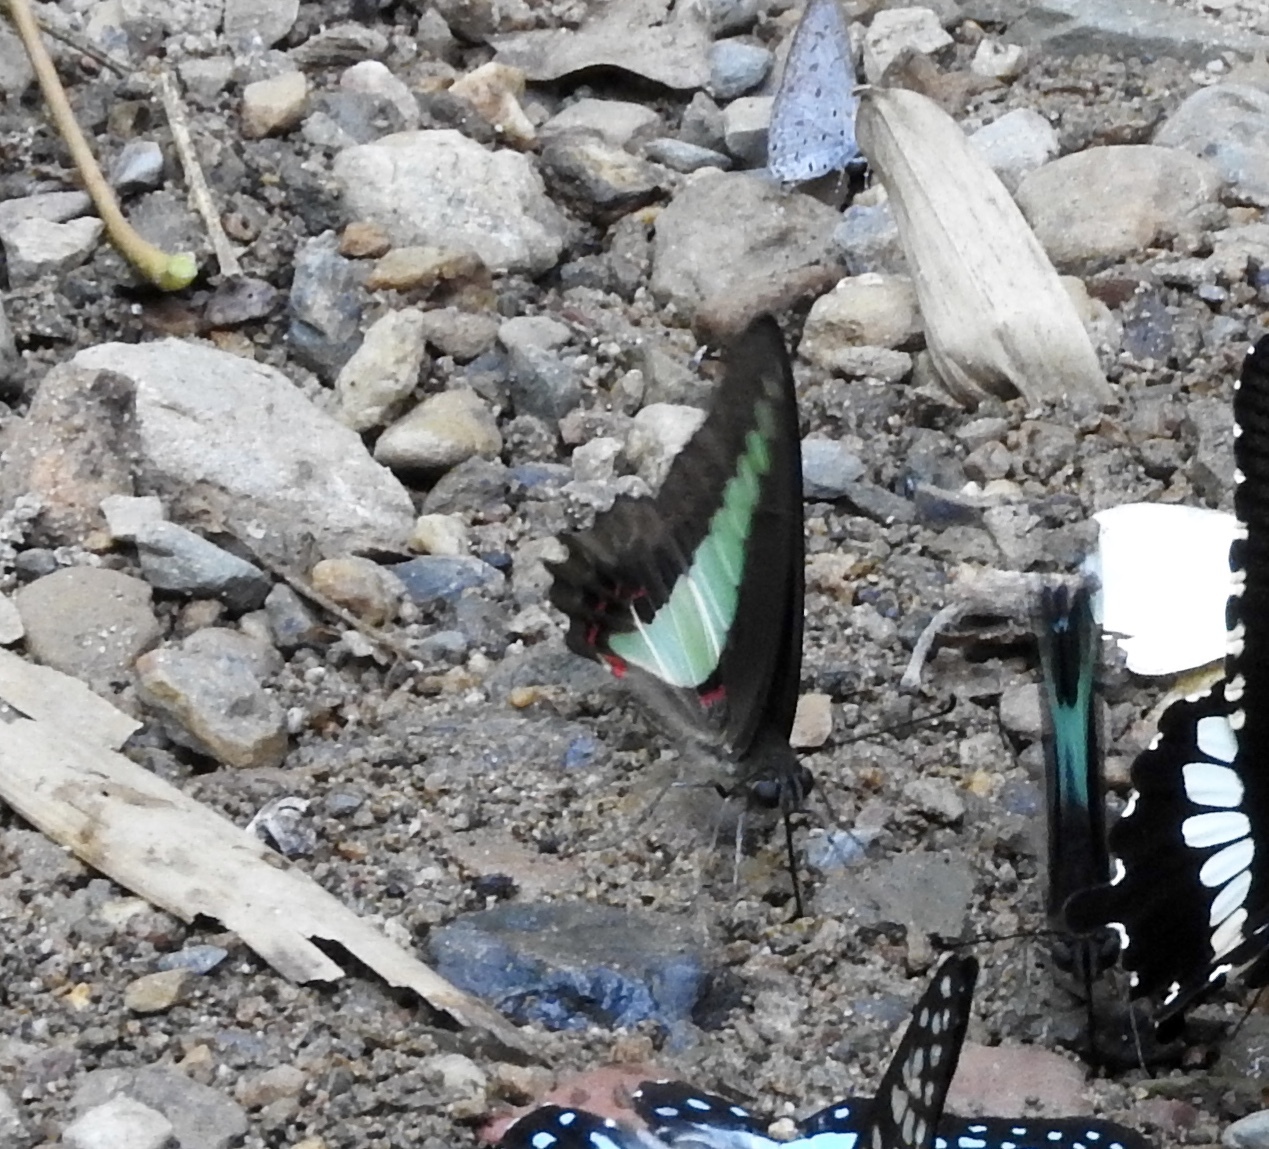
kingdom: Fungi
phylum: Ascomycota
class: Sordariomycetes
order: Microascales
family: Microascaceae
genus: Graphium
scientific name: Graphium sarpedon
